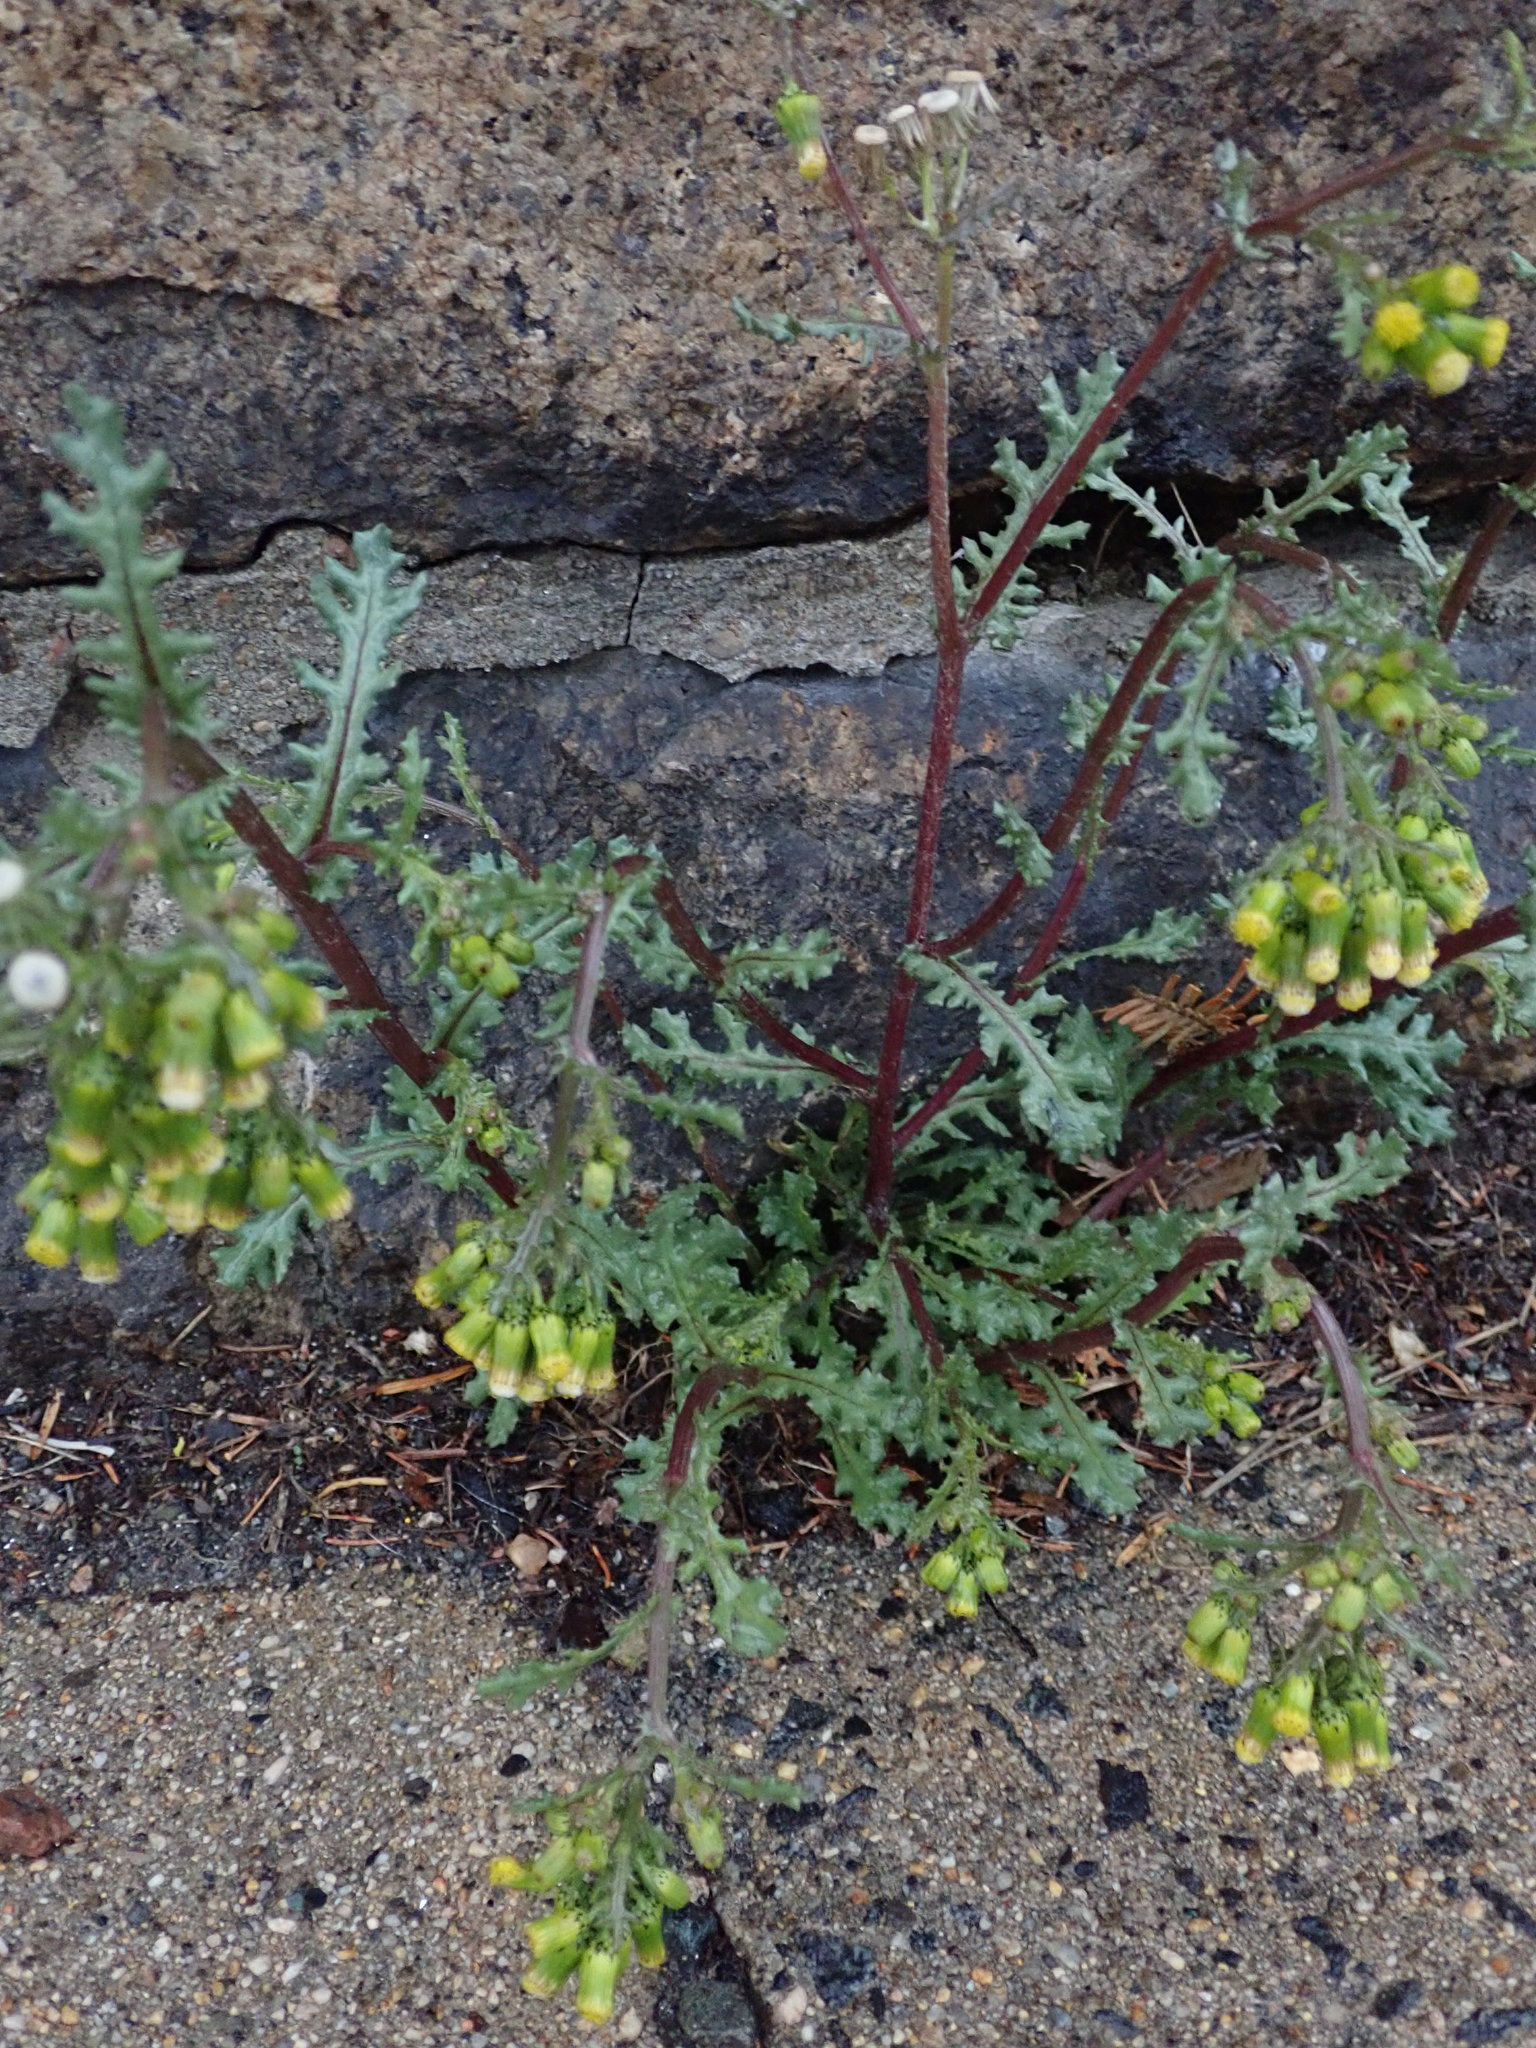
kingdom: Plantae
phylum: Tracheophyta
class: Magnoliopsida
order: Asterales
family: Asteraceae
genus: Senecio
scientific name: Senecio vulgaris
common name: Old-man-in-the-spring
